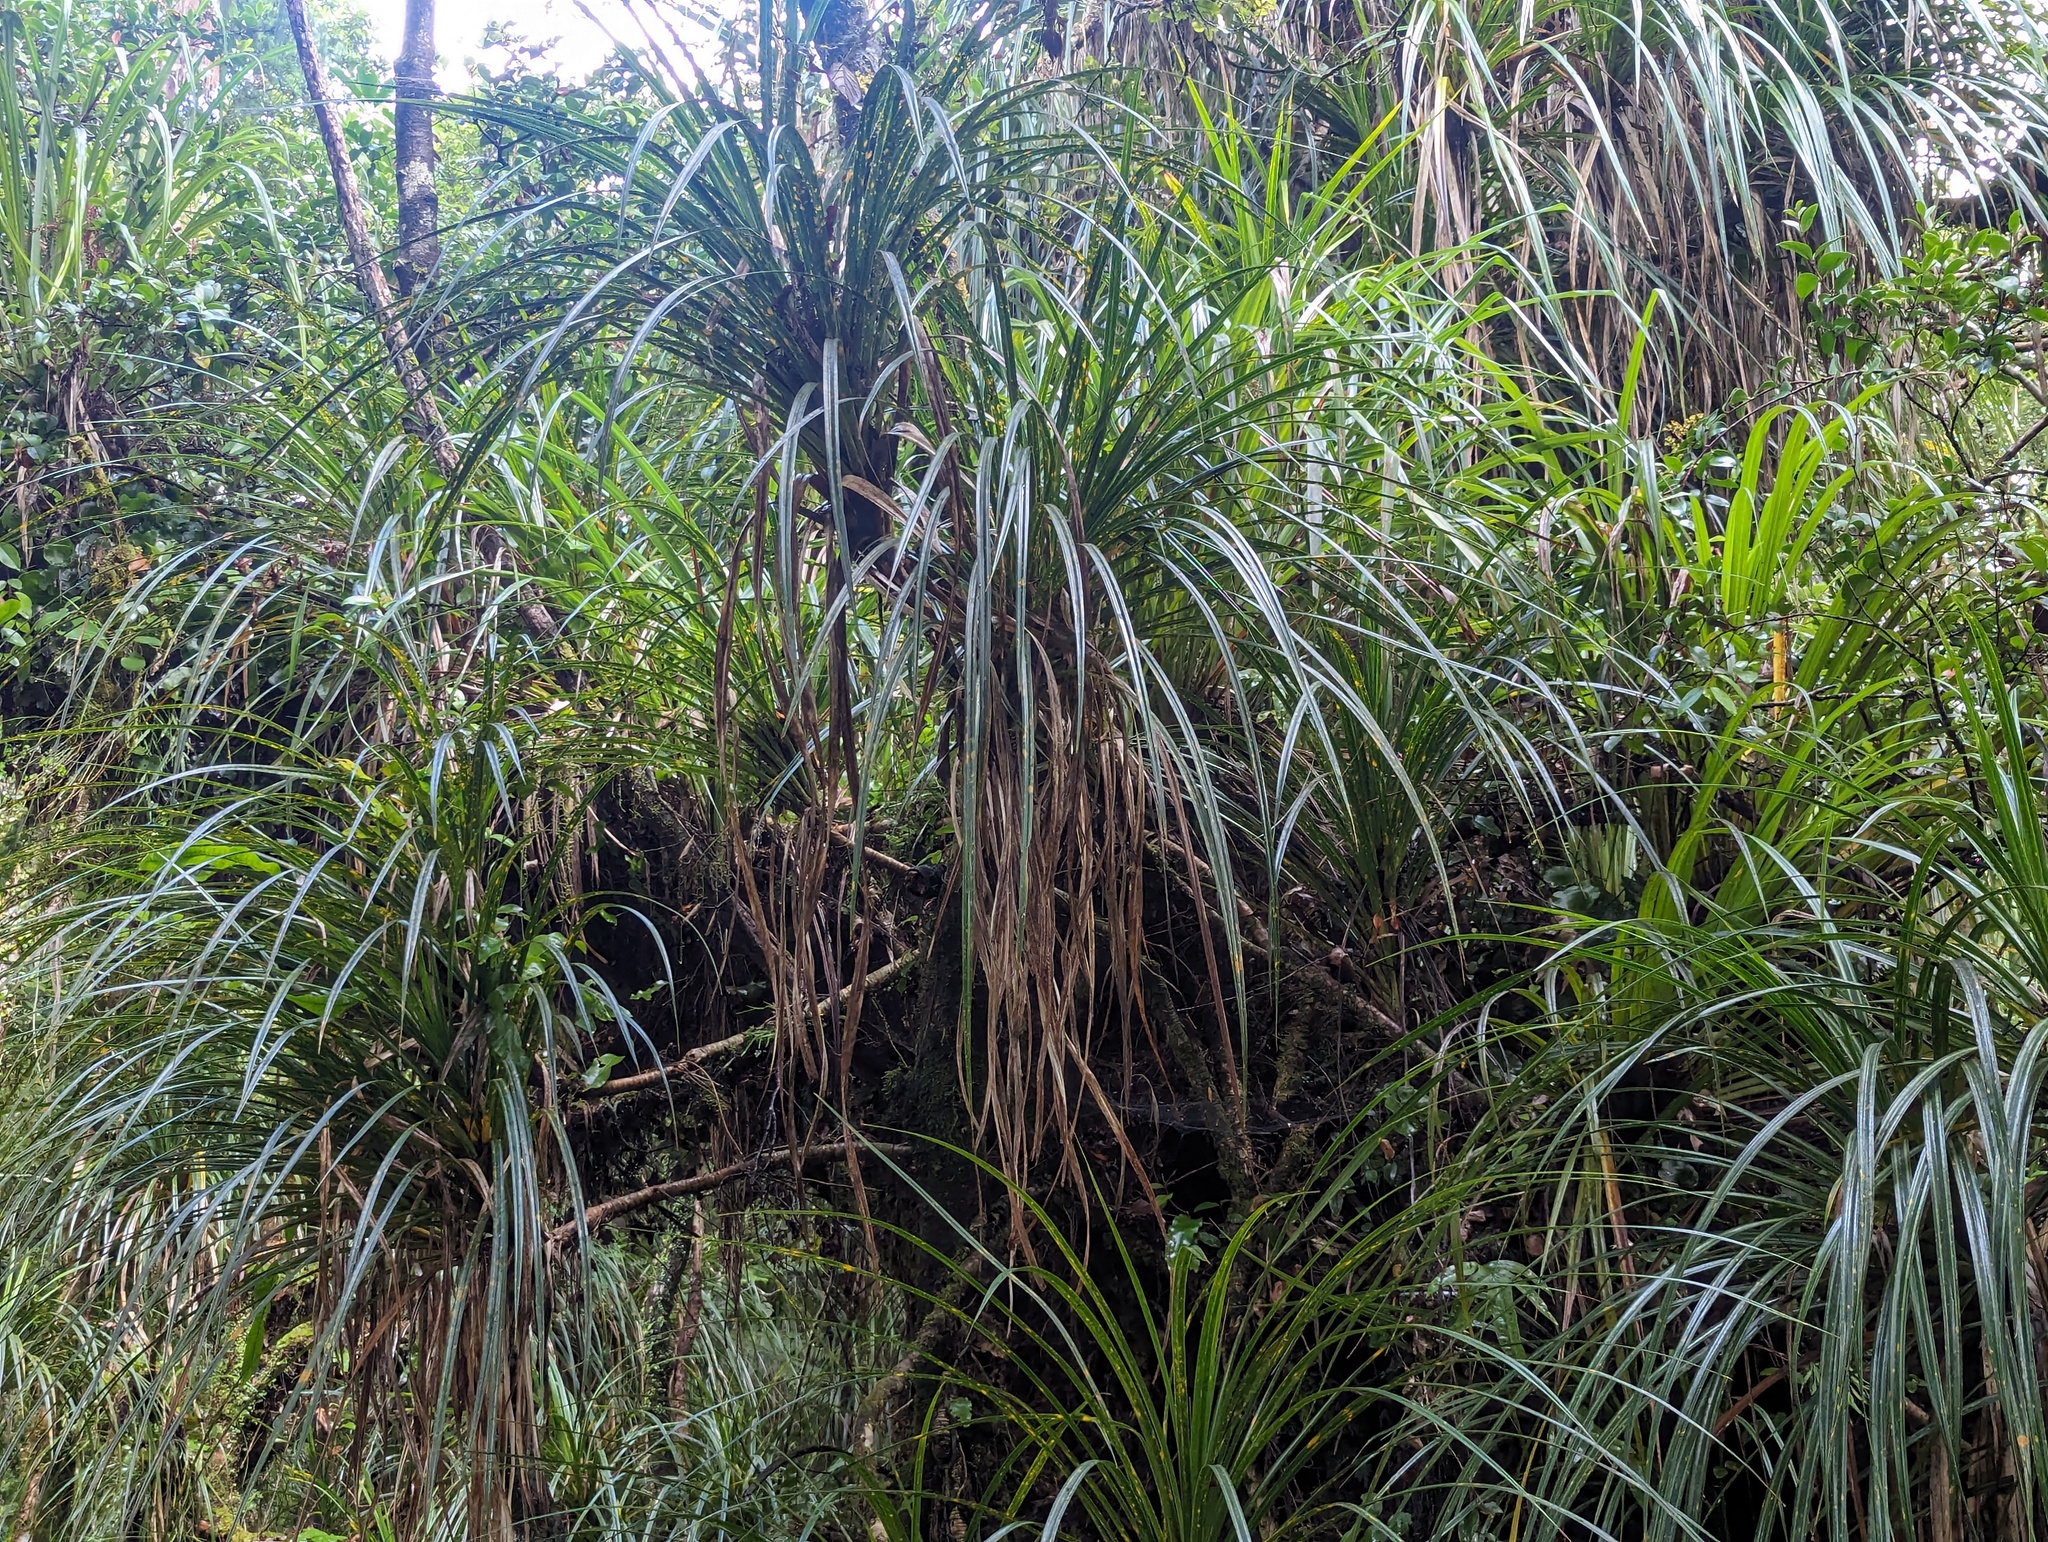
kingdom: Plantae
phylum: Tracheophyta
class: Liliopsida
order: Pandanales
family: Pandanaceae
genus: Freycinetia
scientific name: Freycinetia banksii
